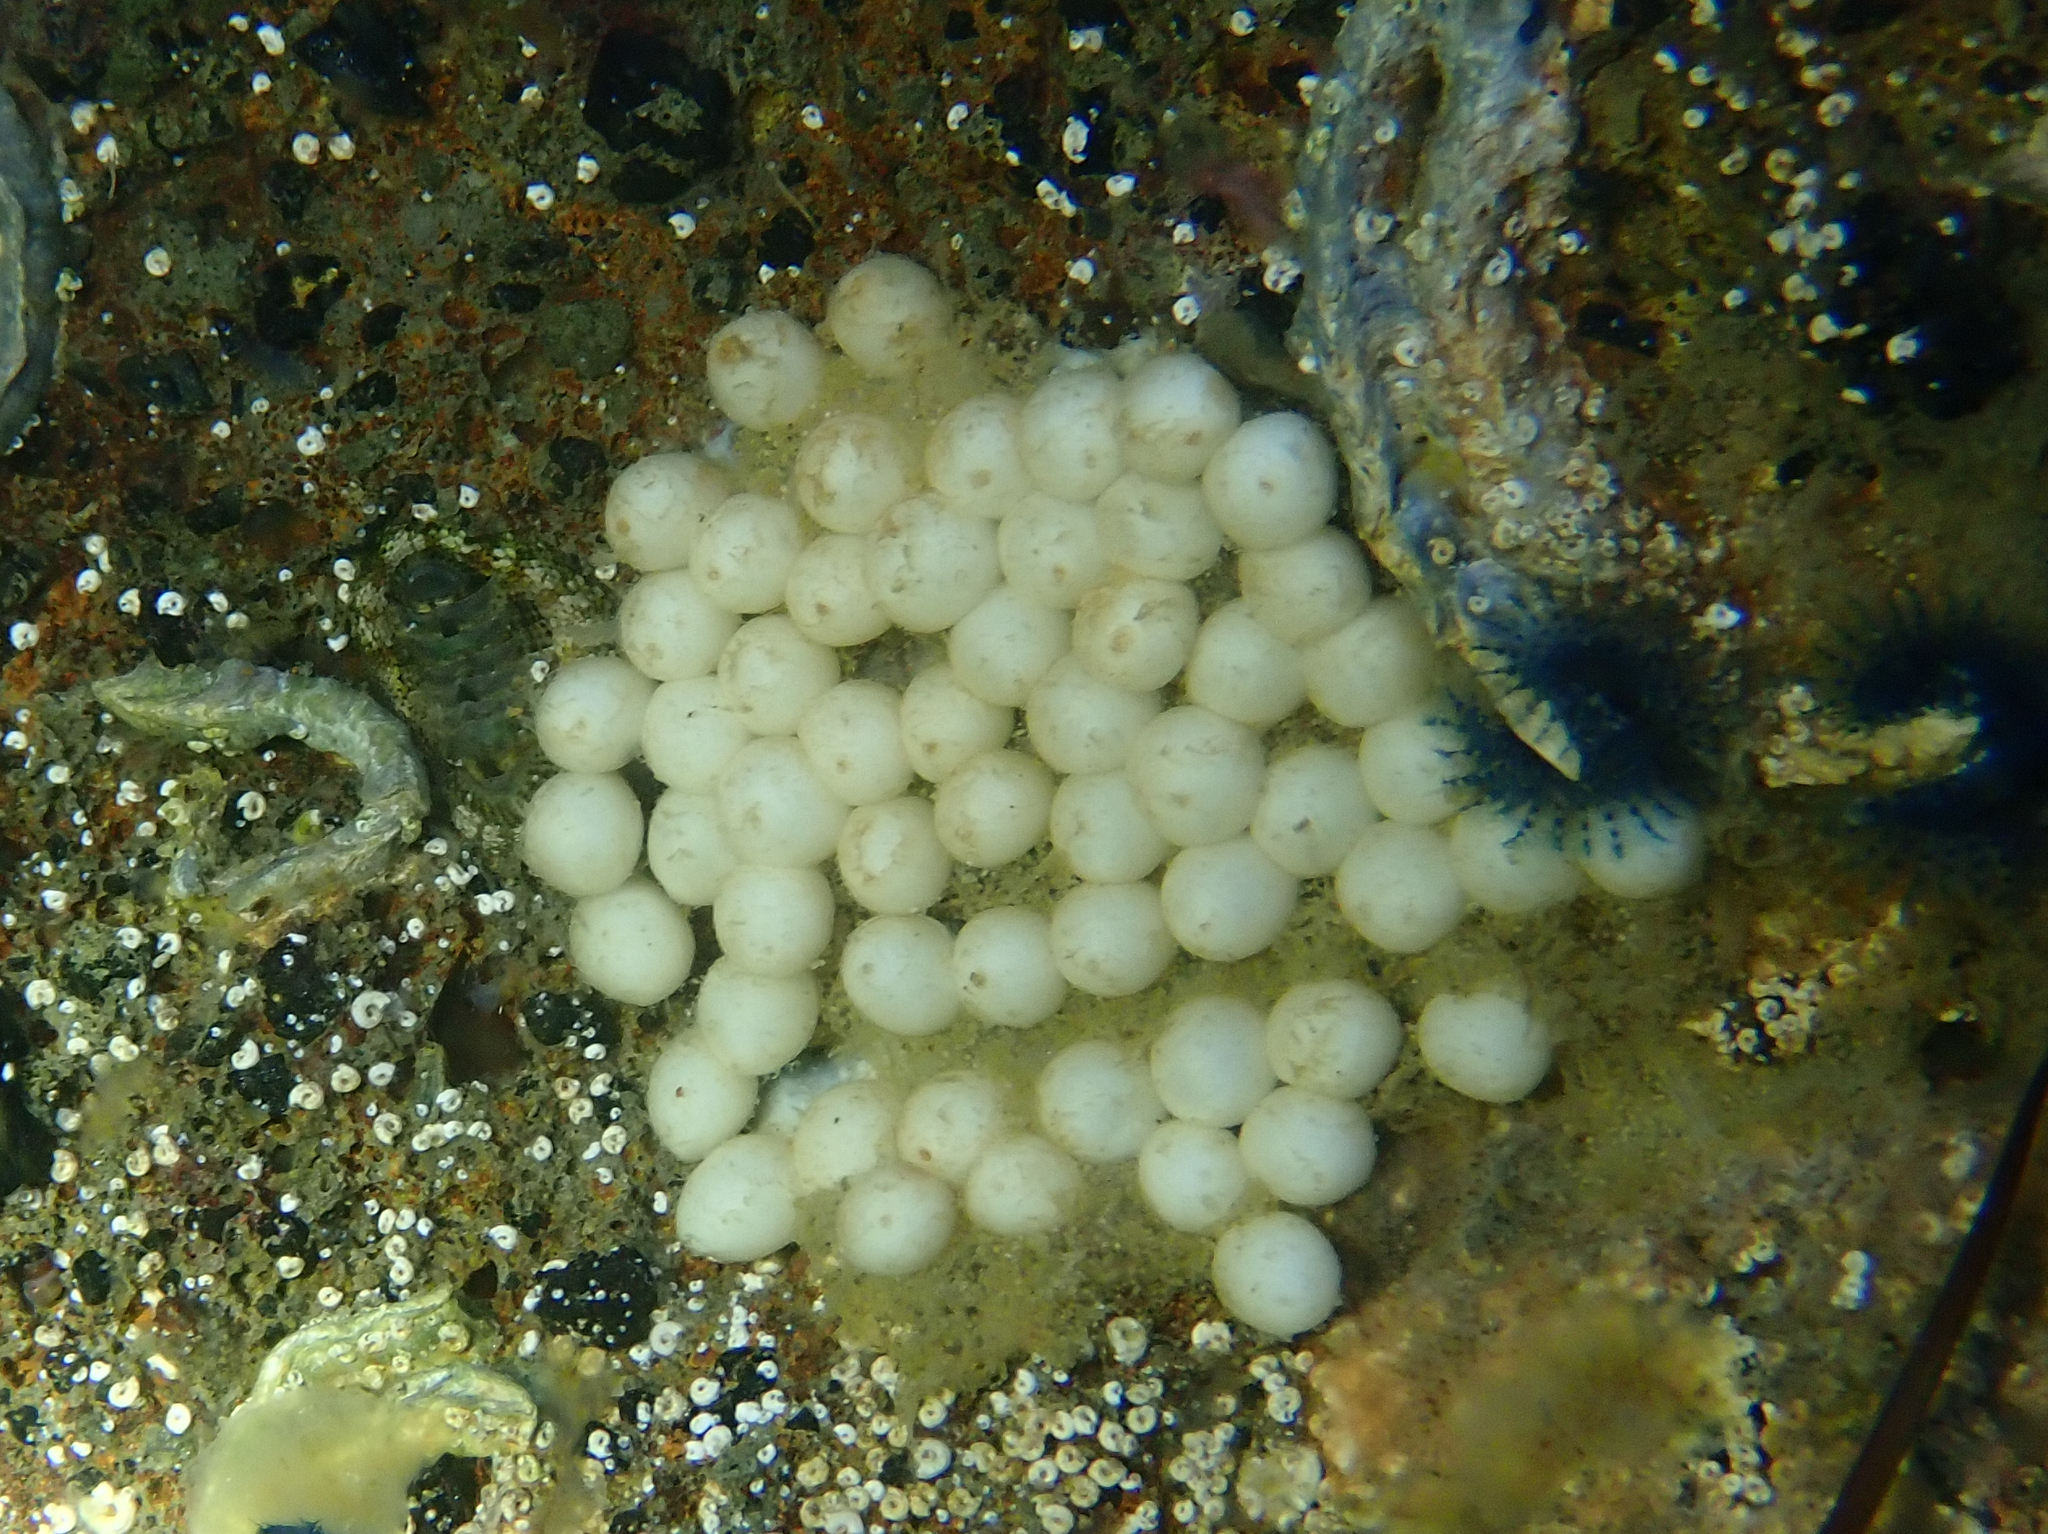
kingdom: Animalia
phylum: Mollusca
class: Cephalopoda
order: Sepiida
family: Sepiadariidae
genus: Sepioloidea
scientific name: Sepioloidea pacifica
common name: Pacific bobtail squid
